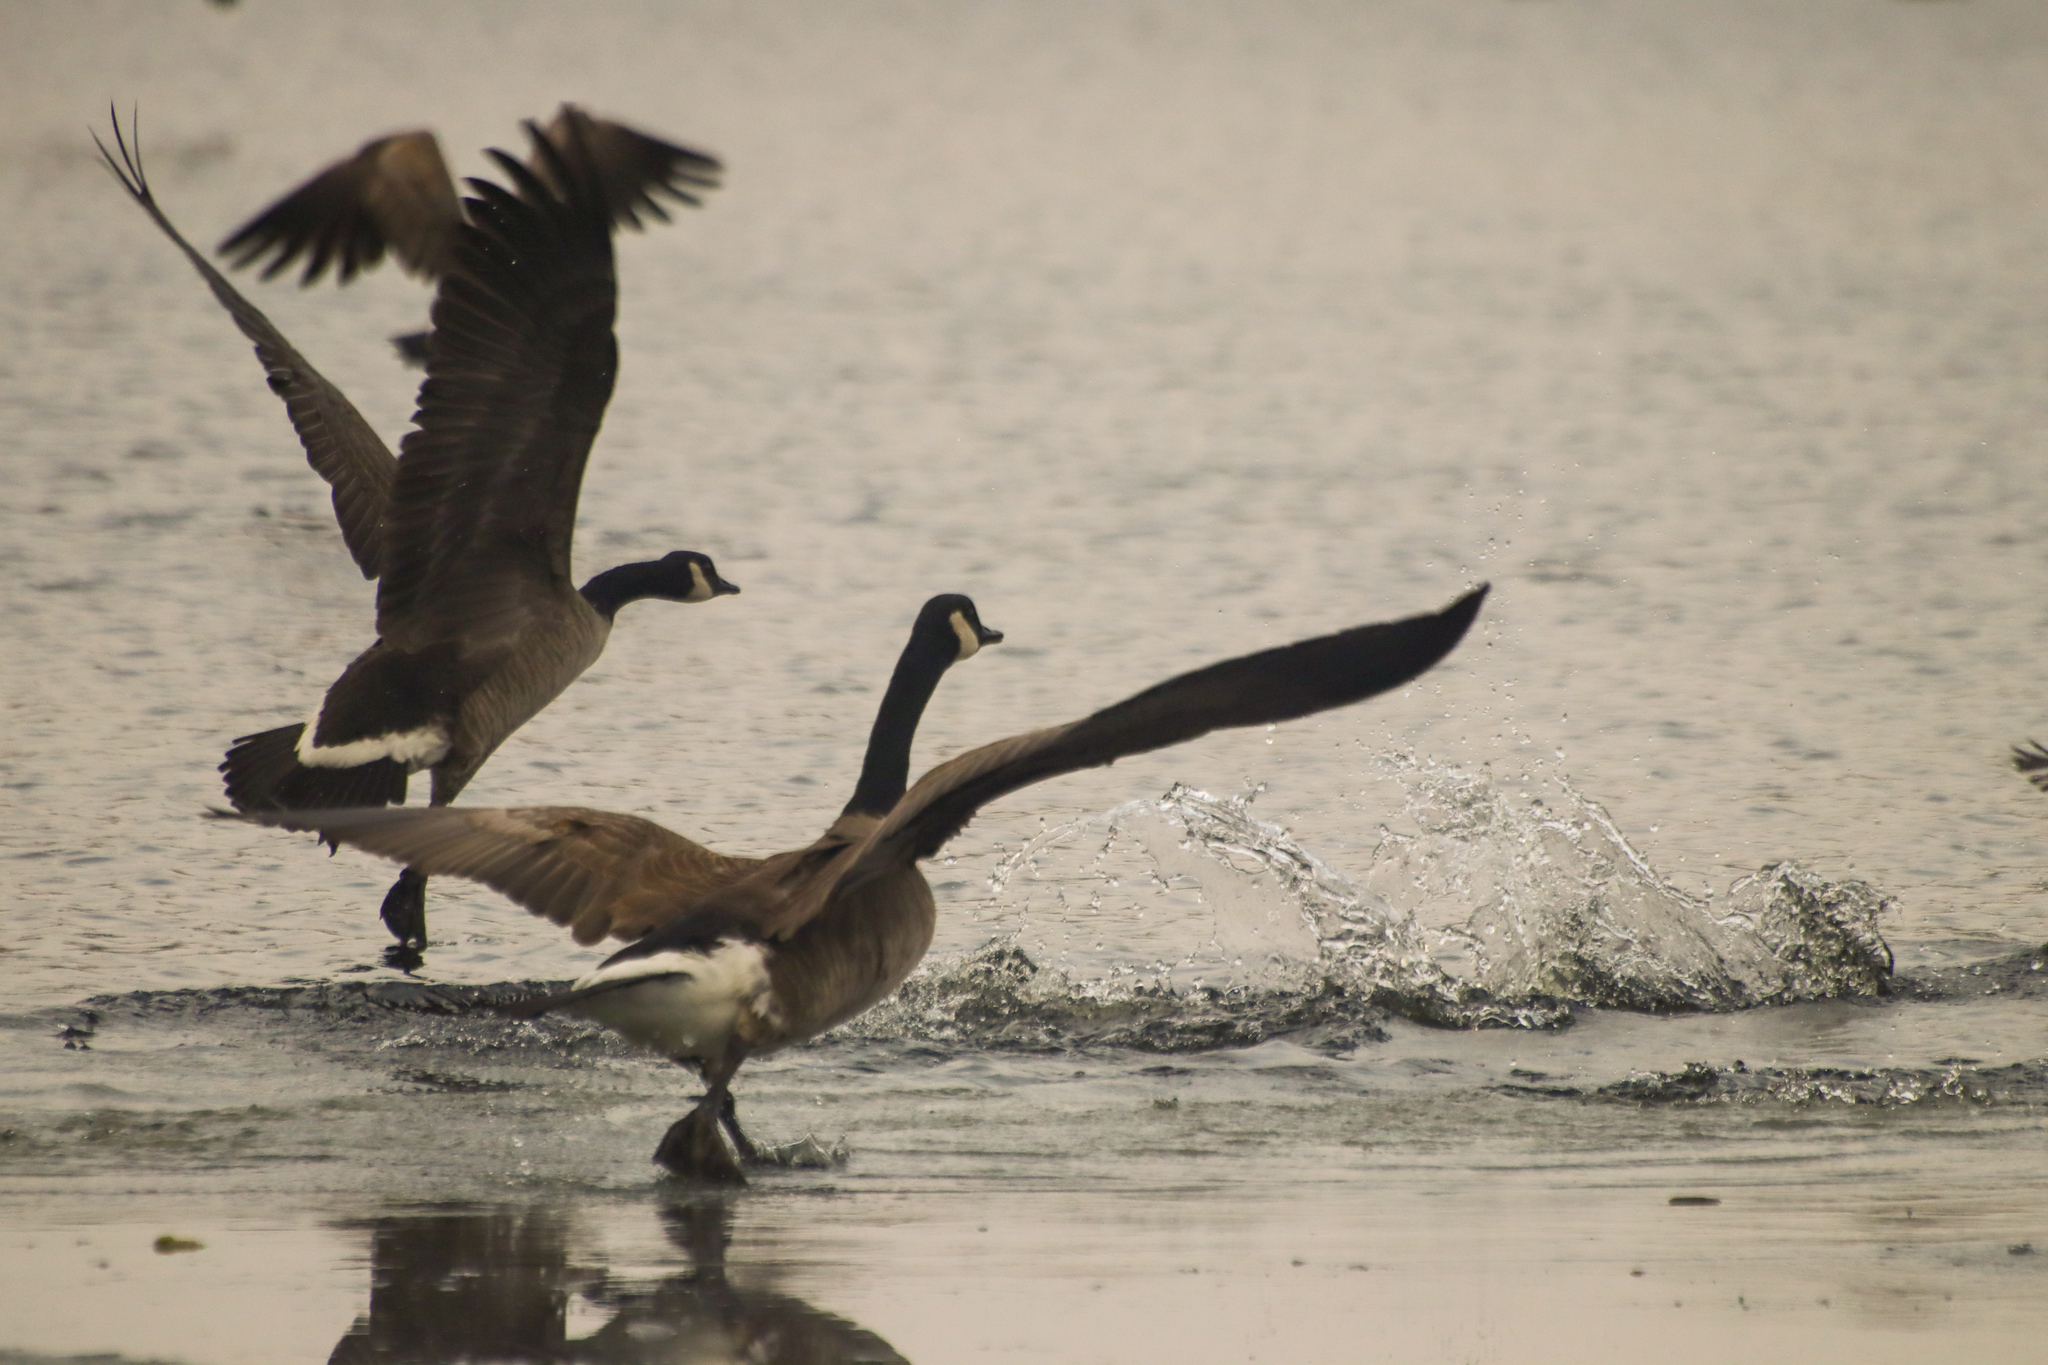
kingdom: Animalia
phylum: Chordata
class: Aves
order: Anseriformes
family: Anatidae
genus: Branta
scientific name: Branta canadensis
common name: Canada goose
